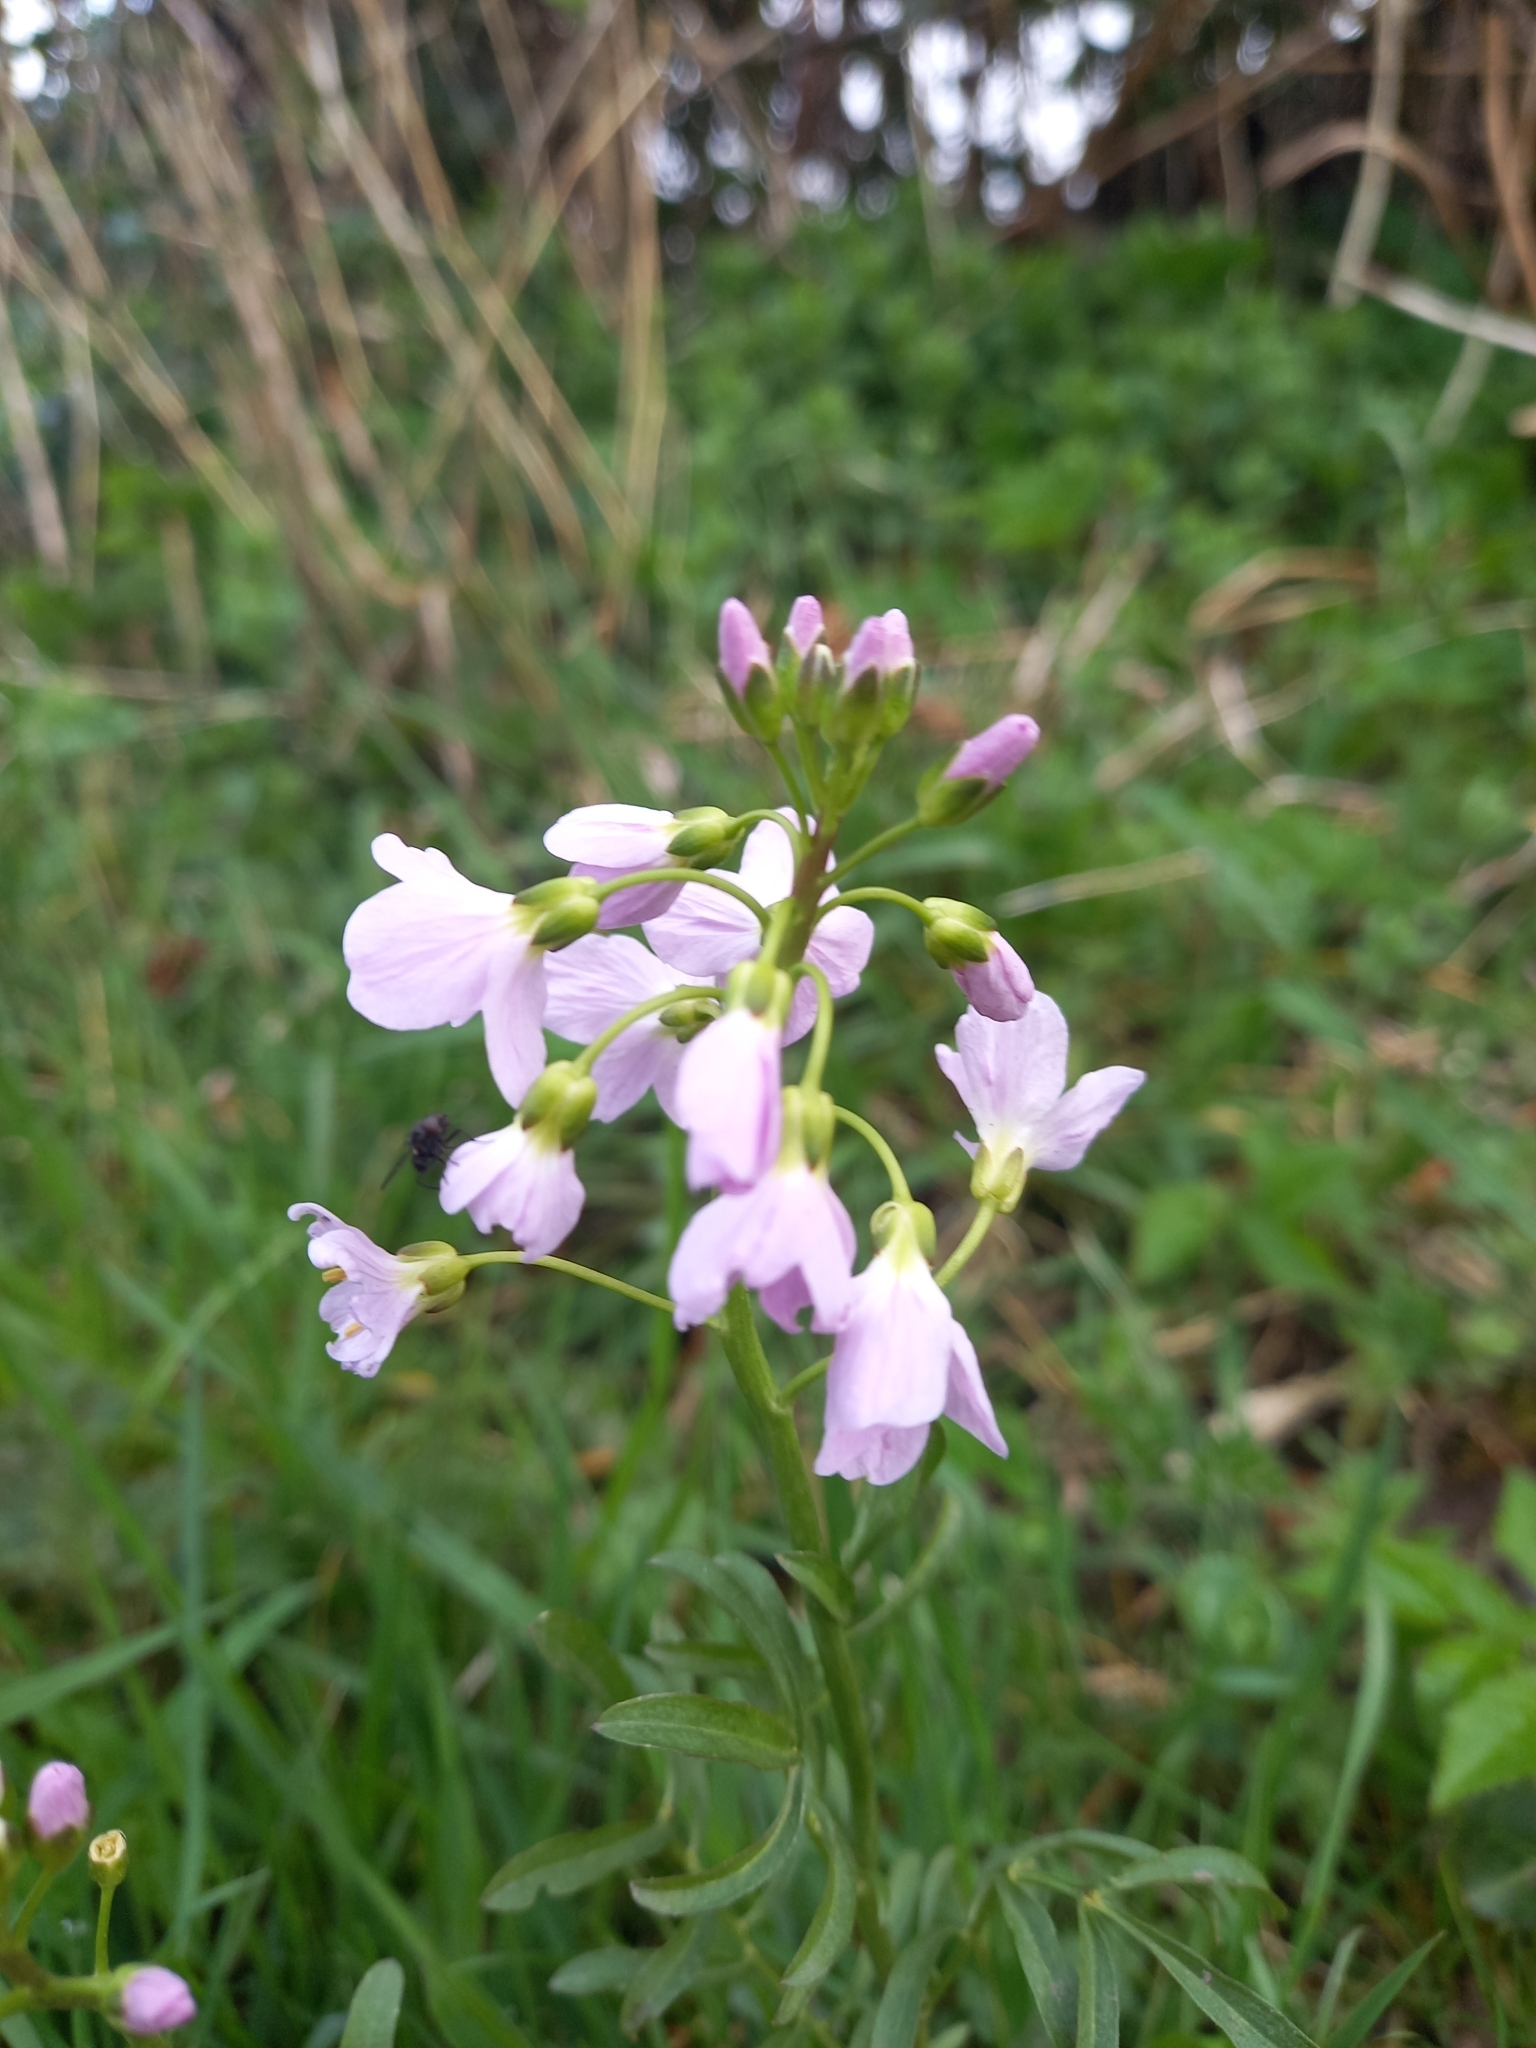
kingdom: Plantae
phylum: Tracheophyta
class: Magnoliopsida
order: Brassicales
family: Brassicaceae
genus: Cardamine
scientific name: Cardamine pratensis
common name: Cuckoo flower
